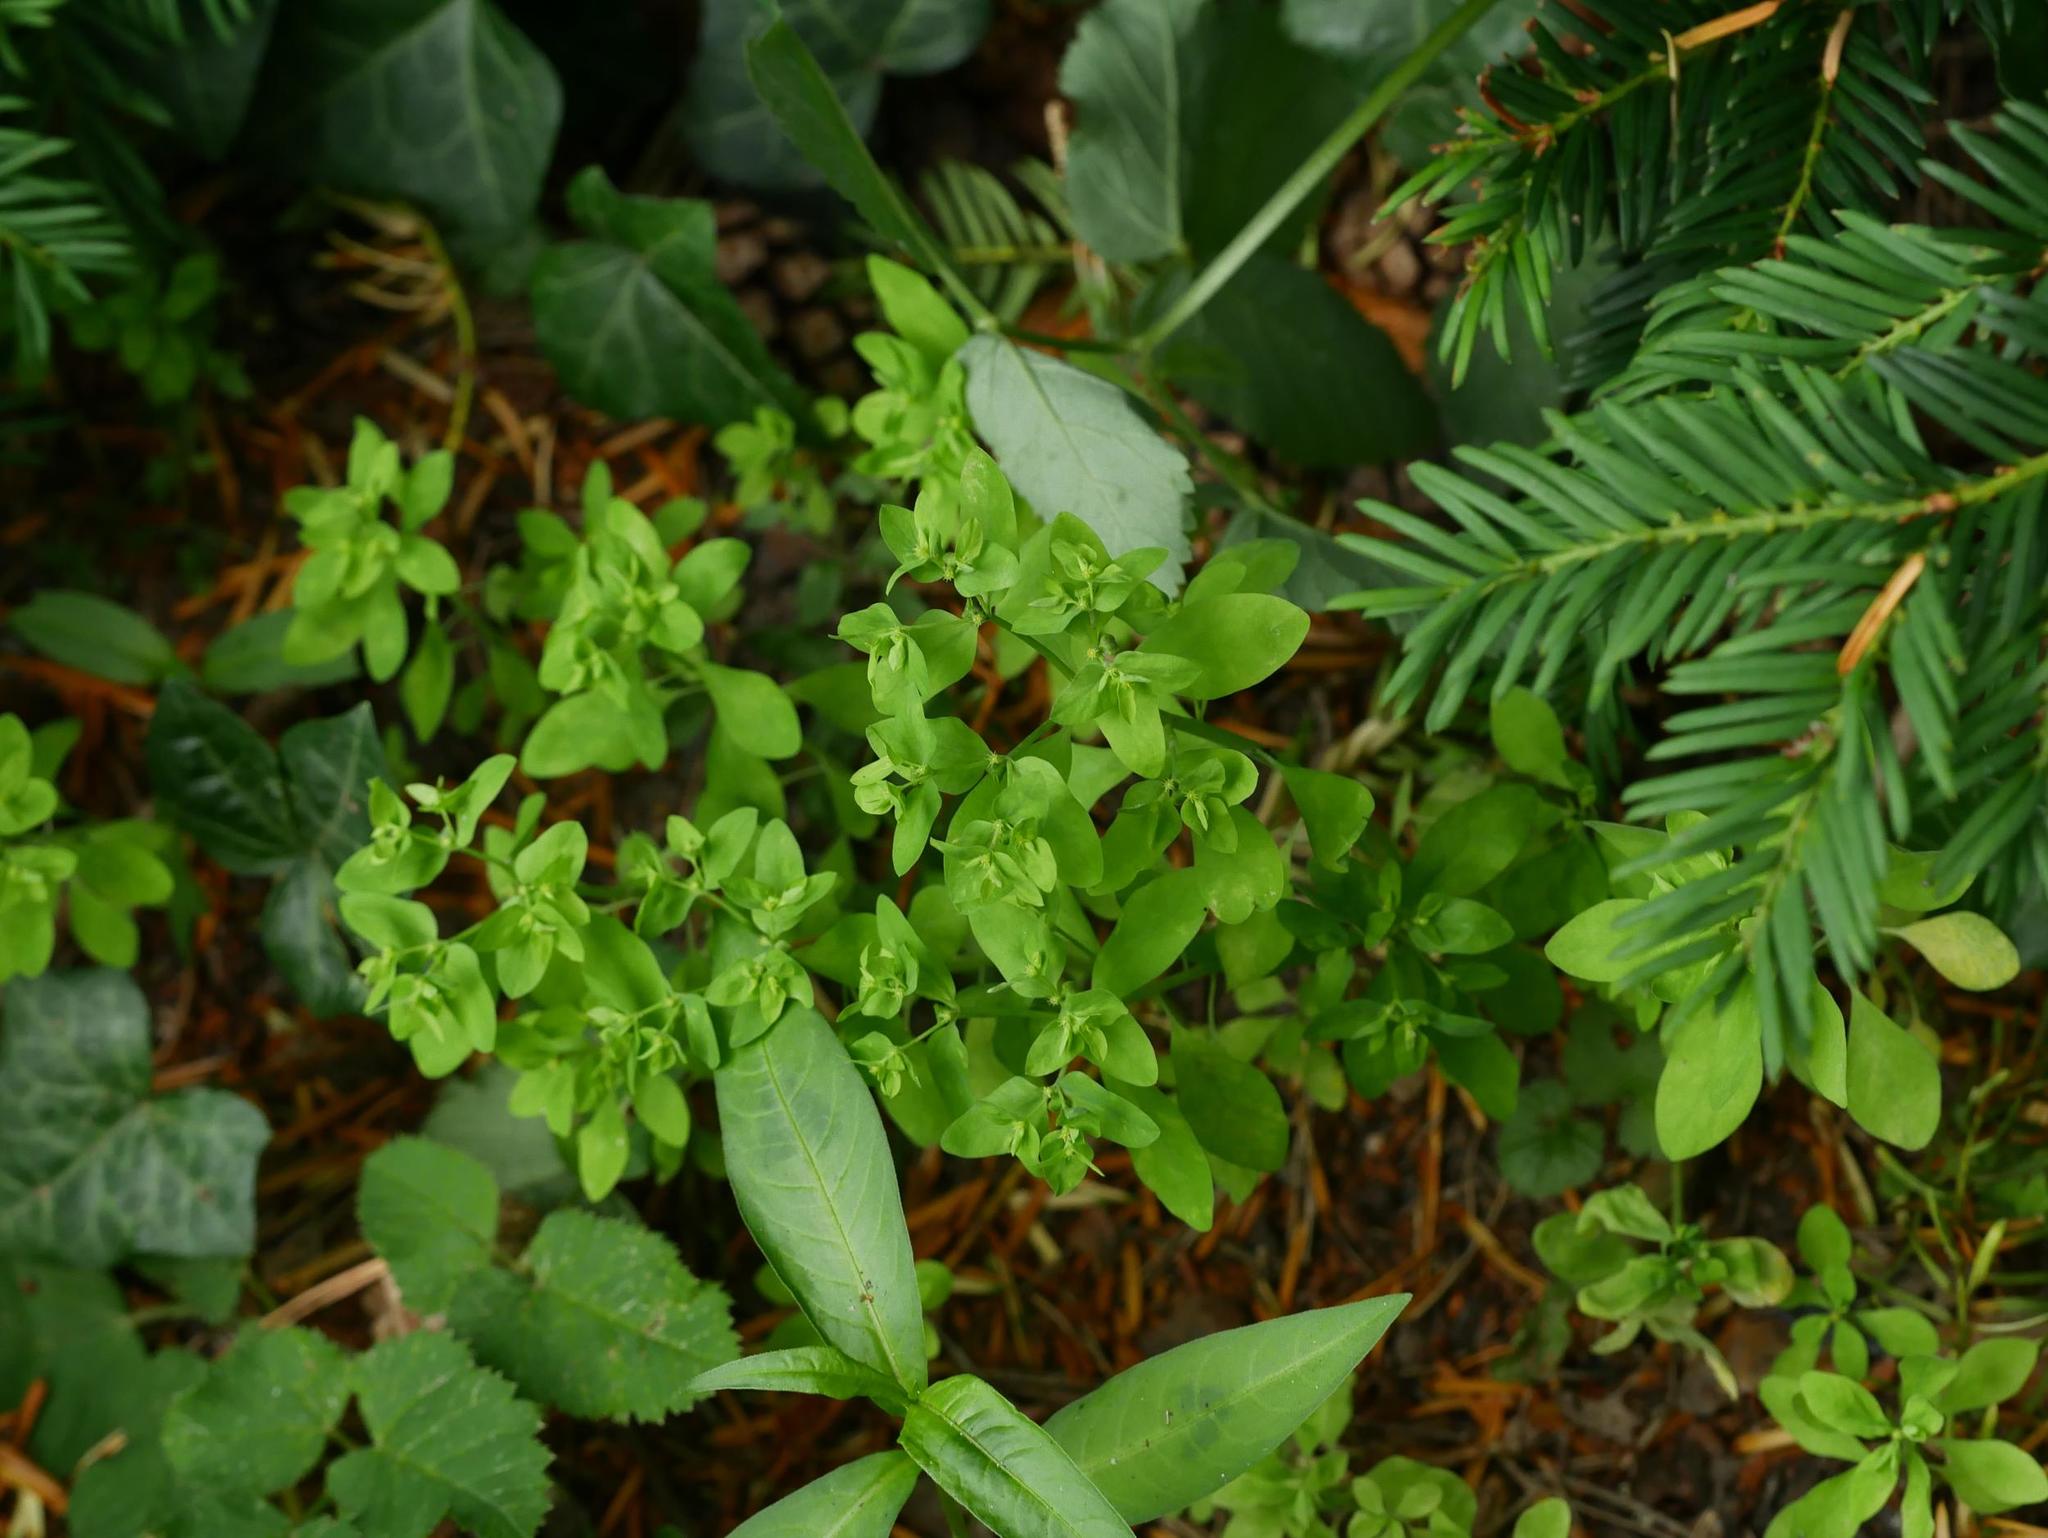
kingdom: Plantae
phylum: Tracheophyta
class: Magnoliopsida
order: Malpighiales
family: Euphorbiaceae
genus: Euphorbia
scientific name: Euphorbia peplus
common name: Petty spurge
